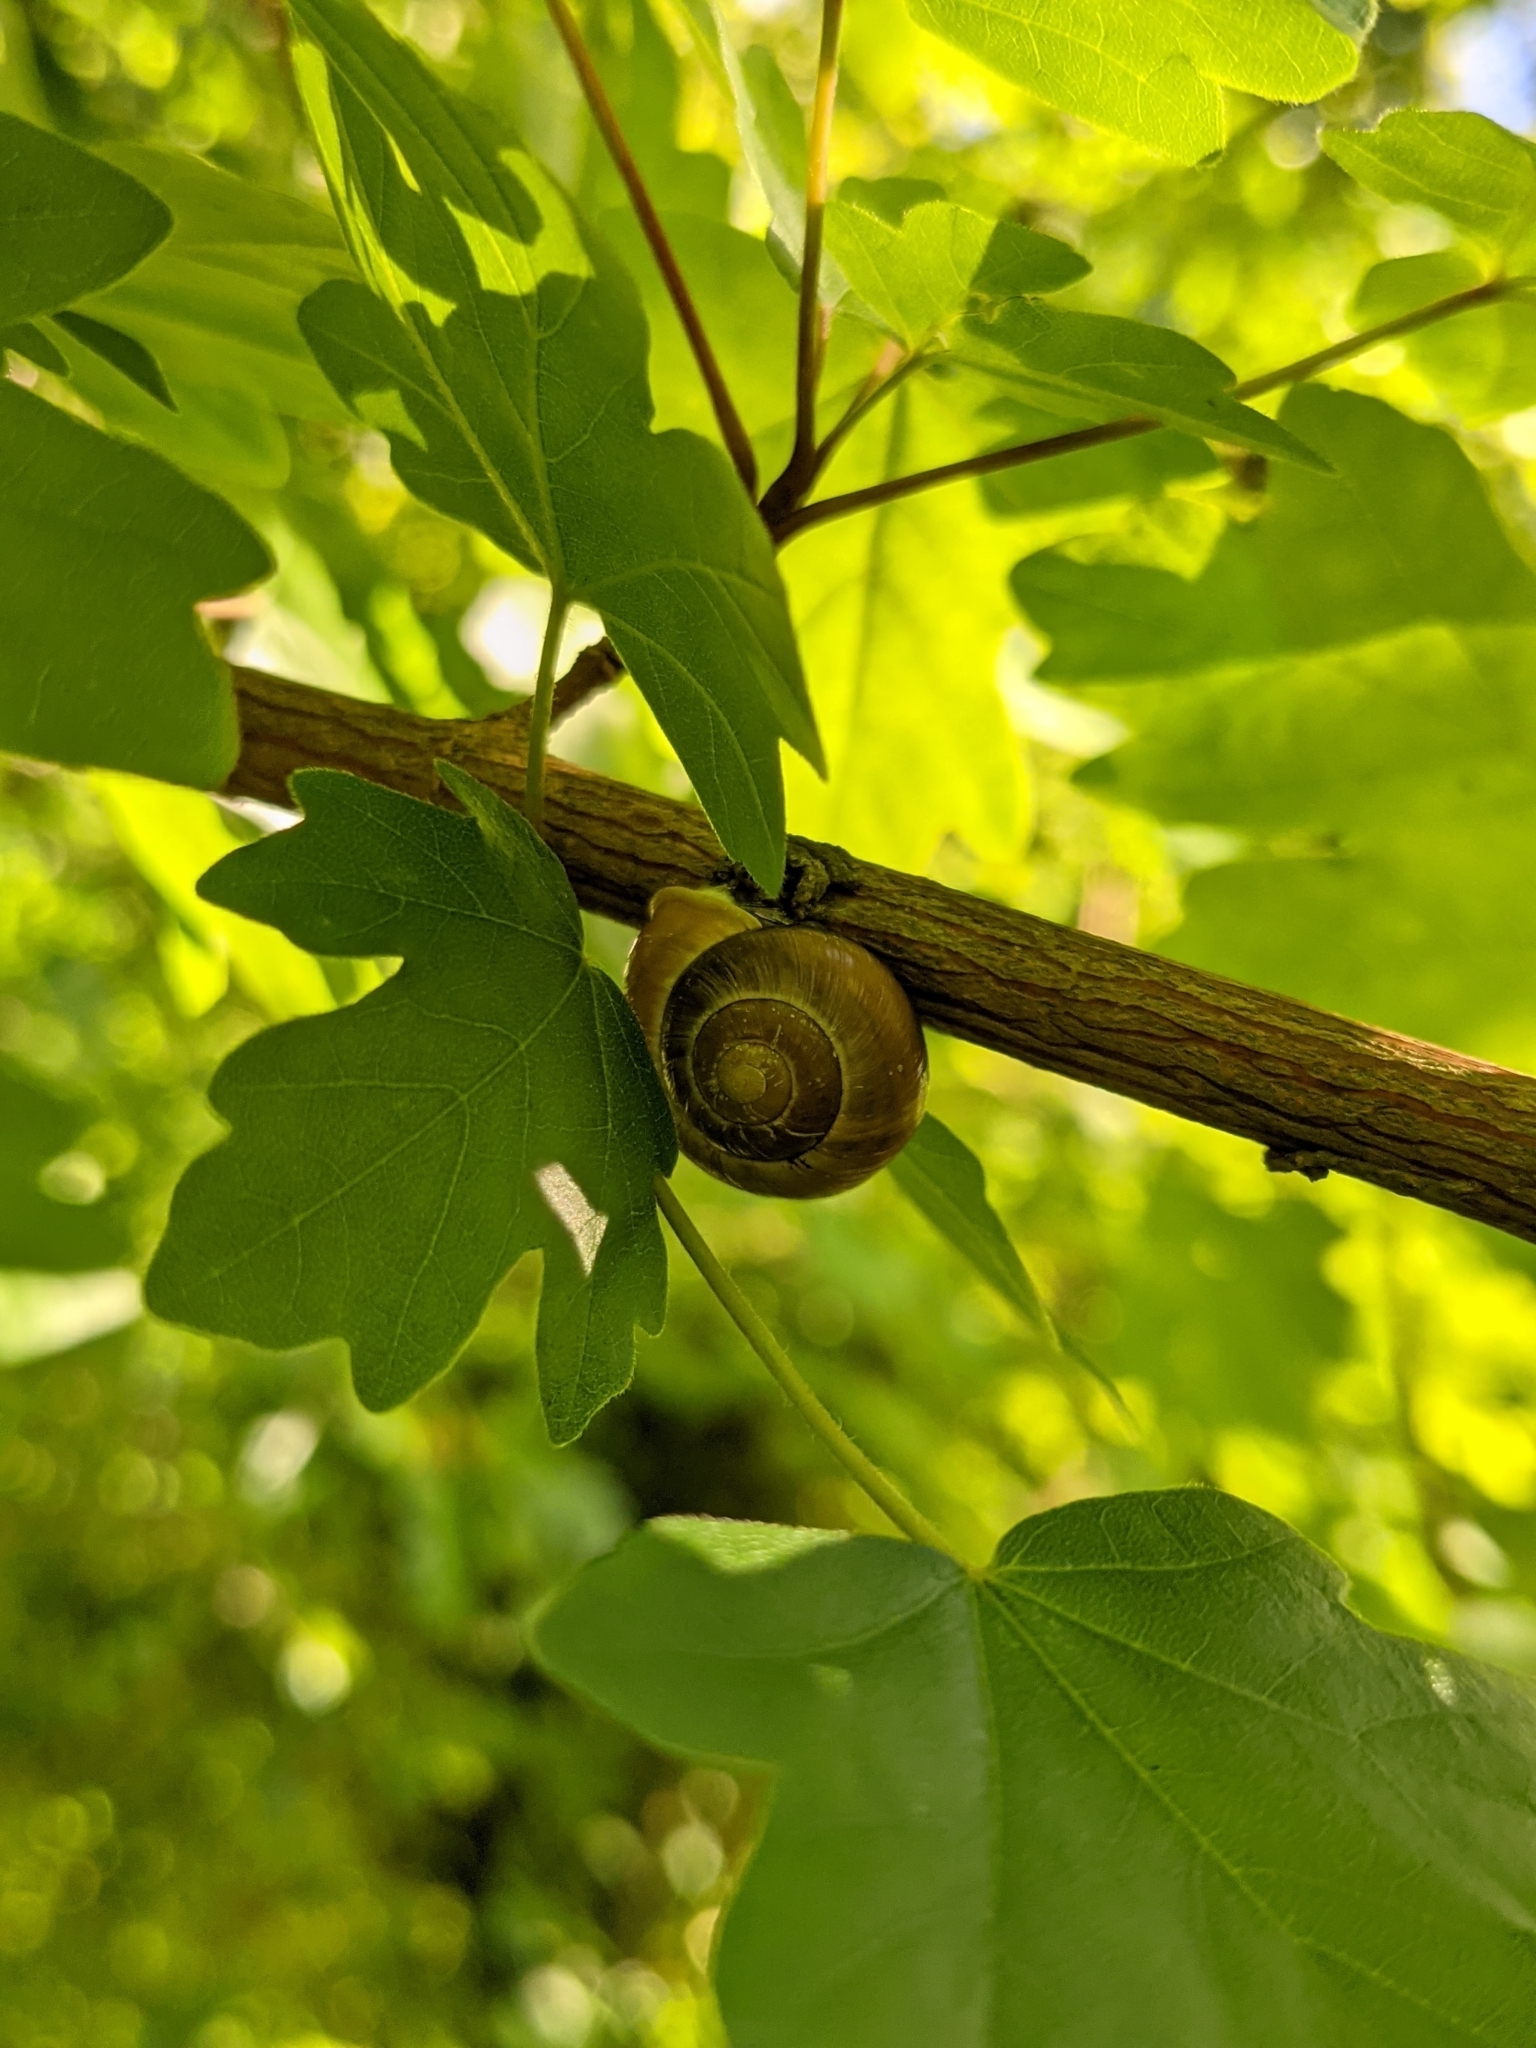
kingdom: Animalia
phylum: Mollusca
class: Gastropoda
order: Stylommatophora
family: Helicidae
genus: Cepaea
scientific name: Cepaea hortensis
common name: White-lip gardensnail
